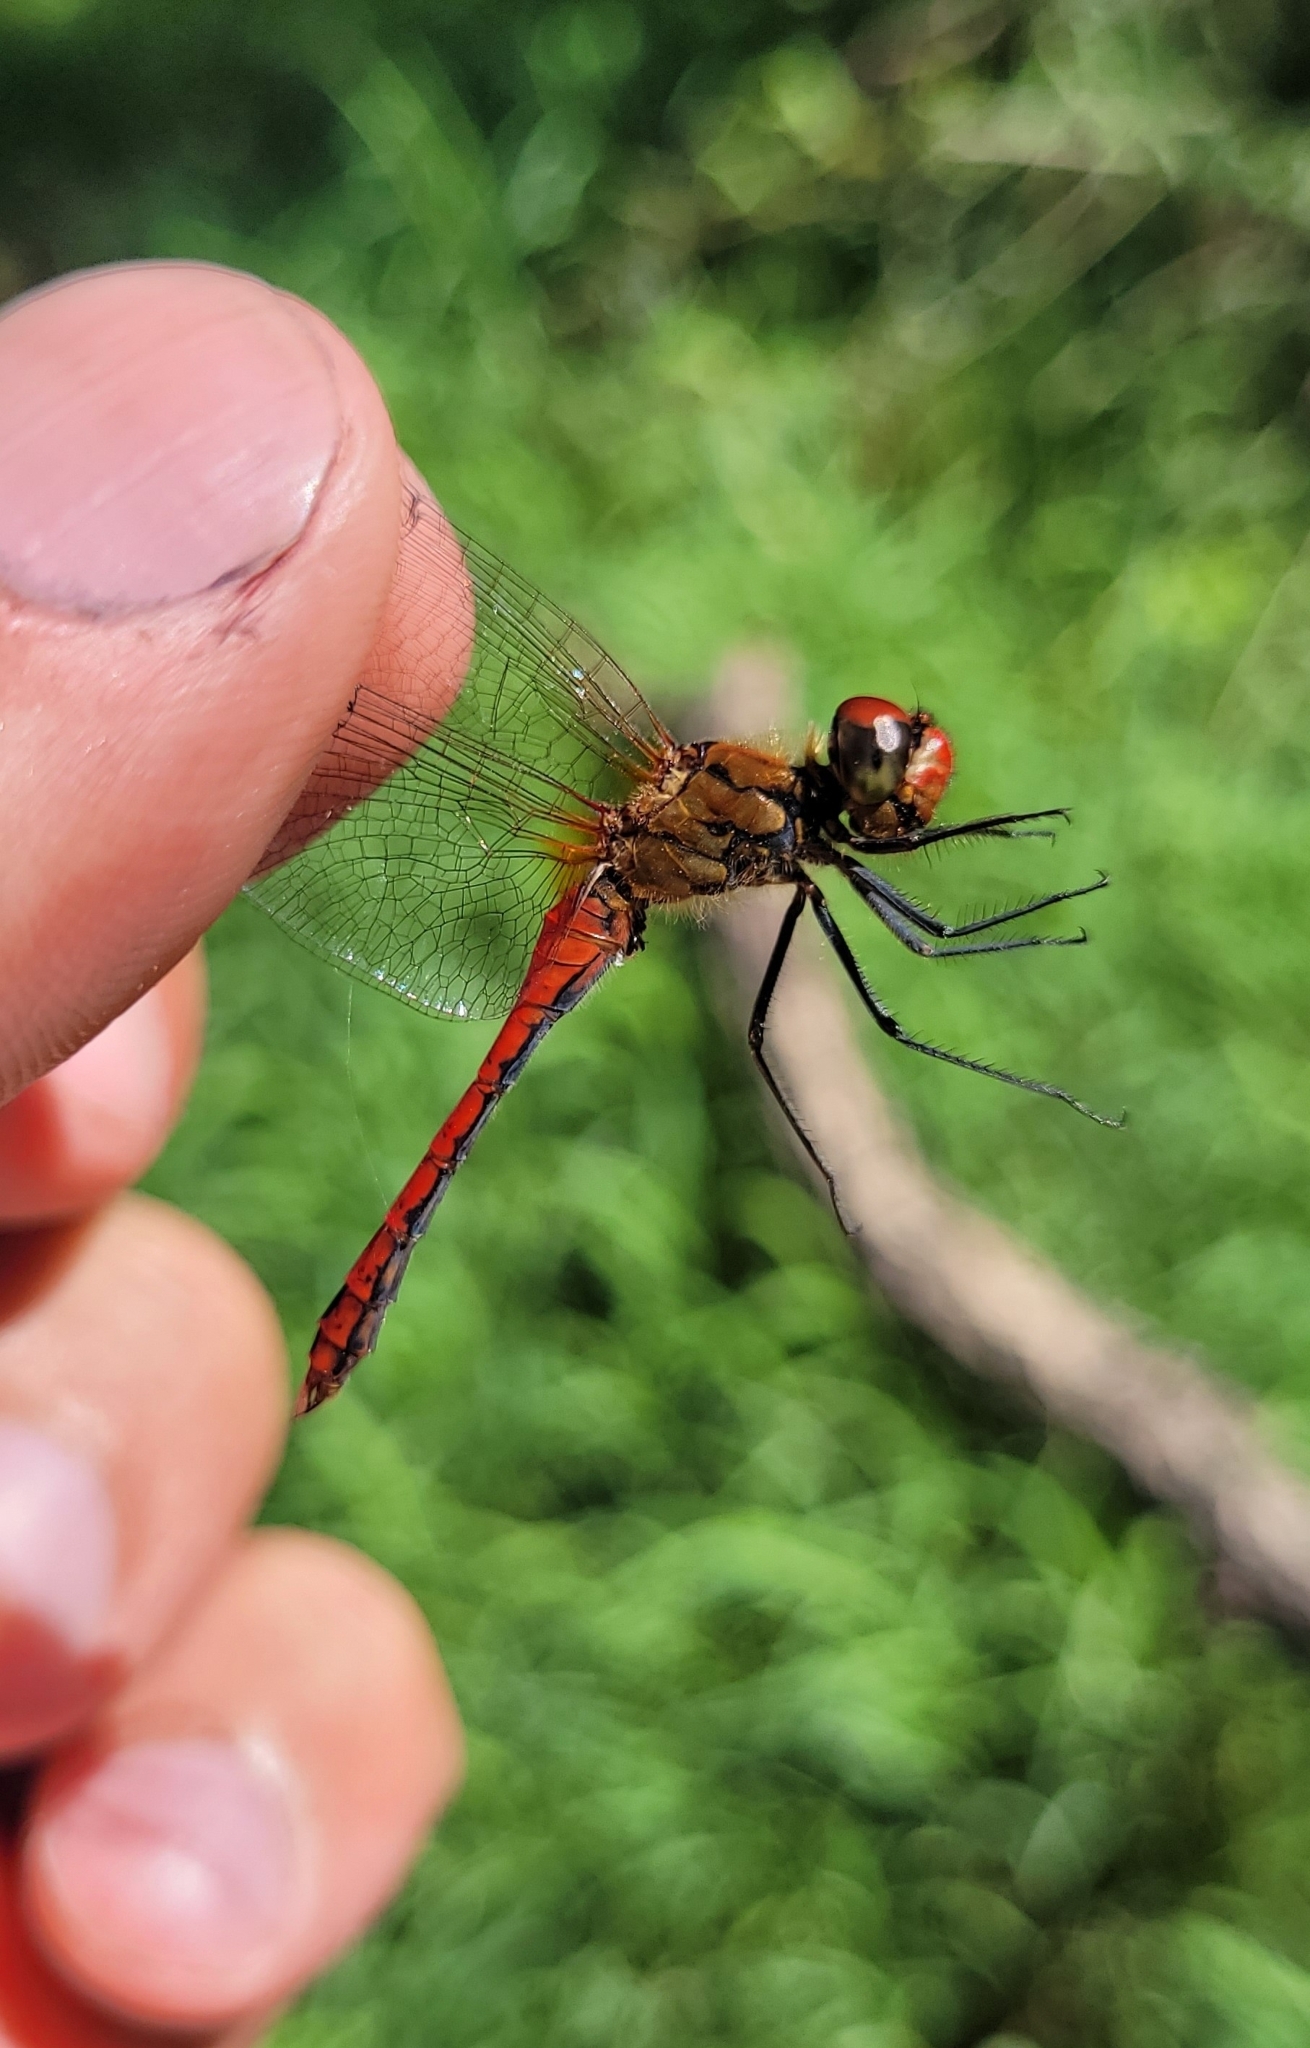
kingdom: Animalia
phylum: Arthropoda
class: Insecta
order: Odonata
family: Libellulidae
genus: Sympetrum
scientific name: Sympetrum sanguineum
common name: Ruddy darter
